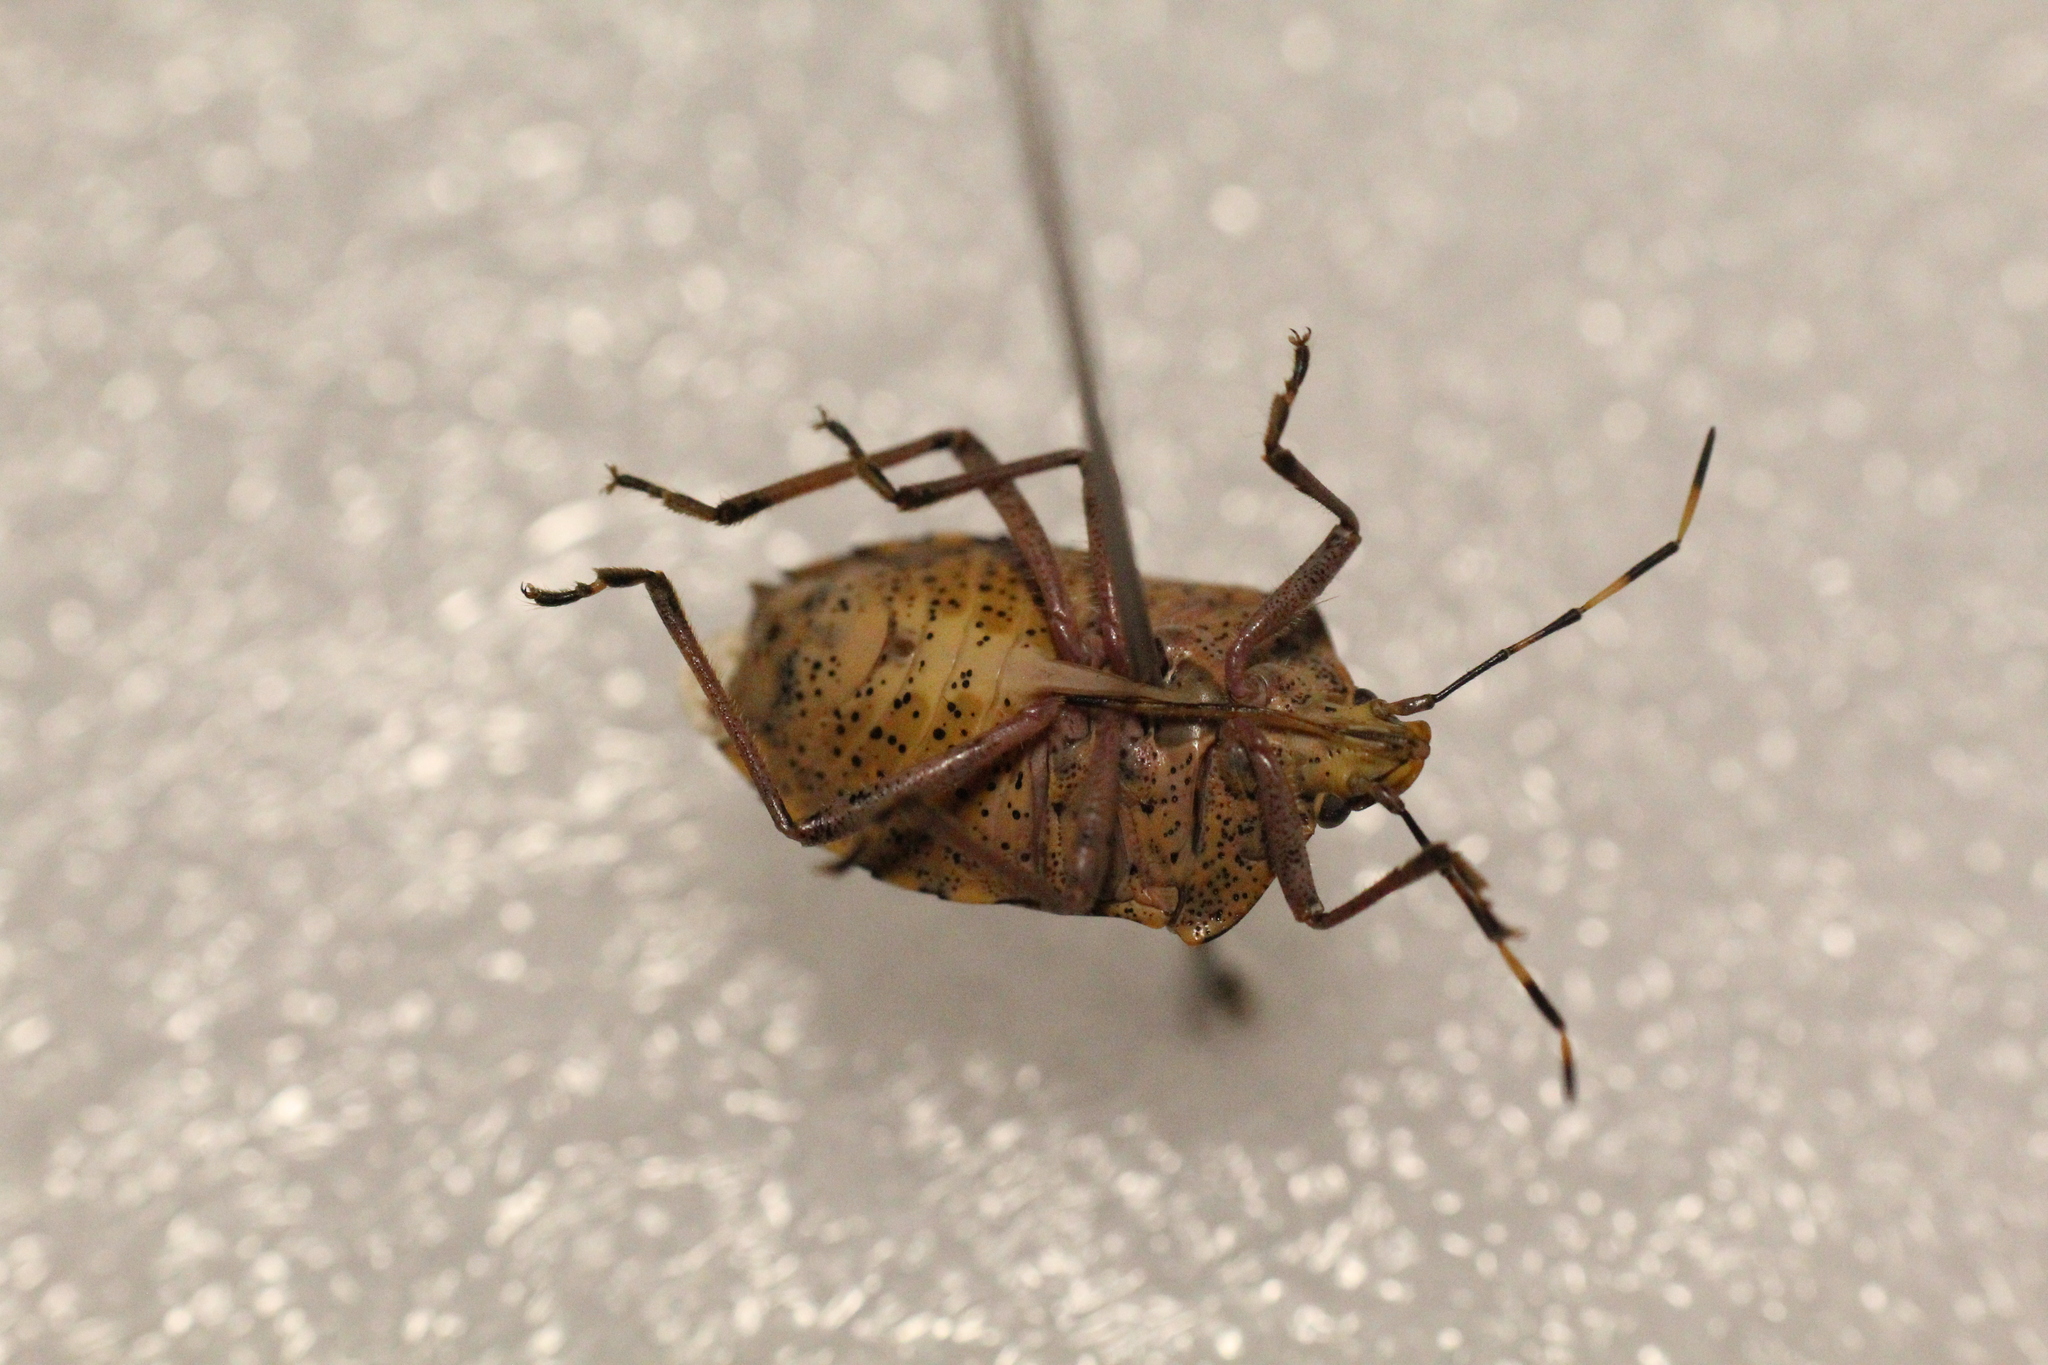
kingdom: Animalia
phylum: Arthropoda
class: Insecta
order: Hemiptera
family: Pentatomidae
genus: Rhaphigaster
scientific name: Rhaphigaster nebulosa
